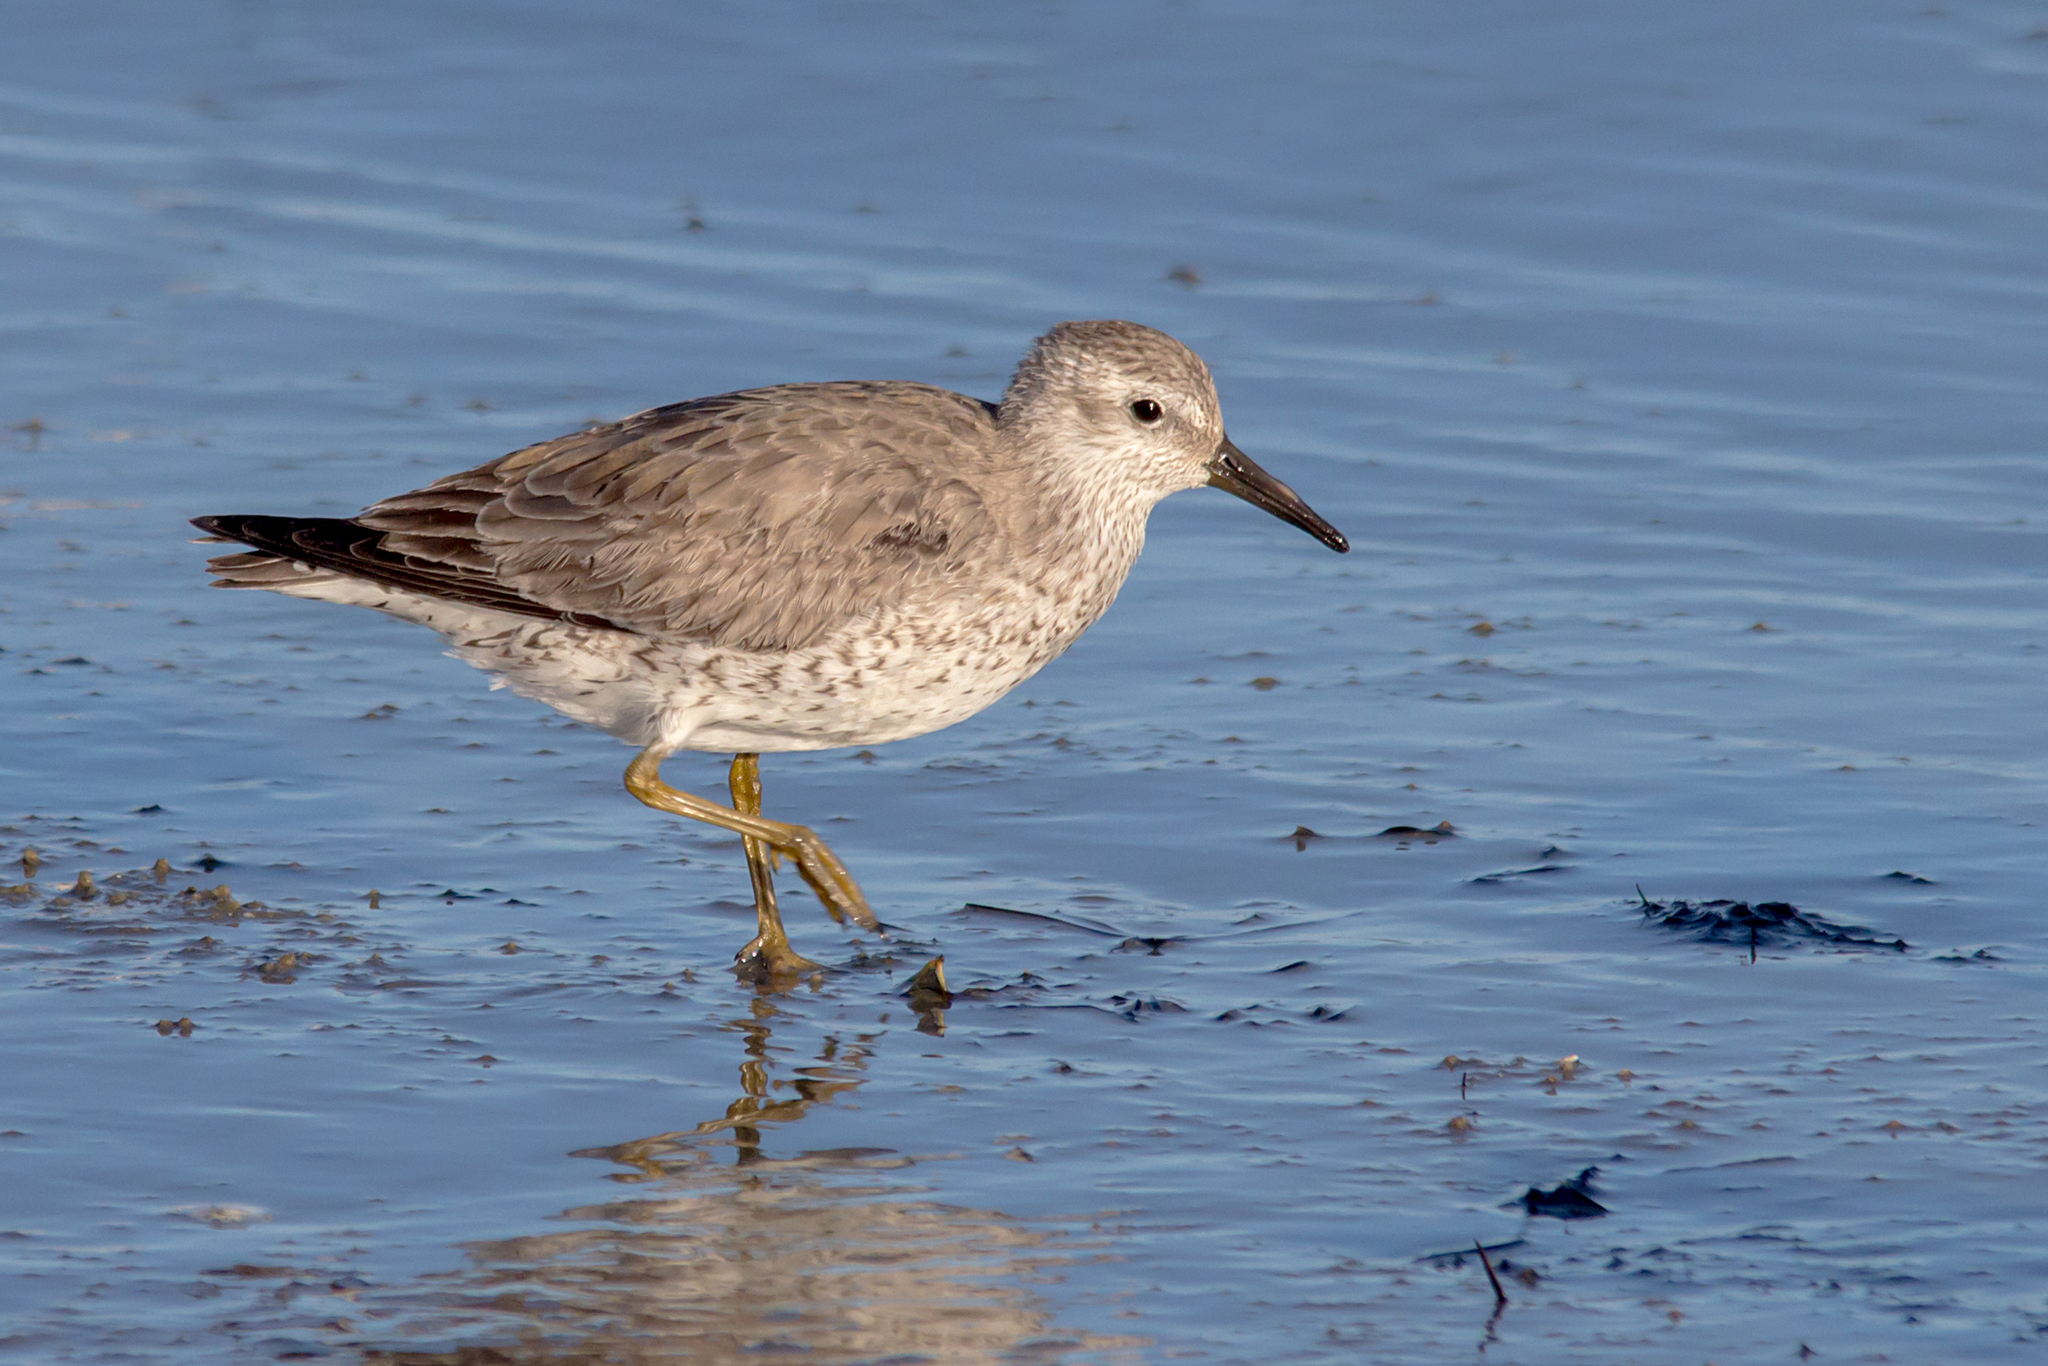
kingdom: Animalia
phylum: Chordata
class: Aves
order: Charadriiformes
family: Scolopacidae
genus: Calidris
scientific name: Calidris canutus
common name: Red knot
